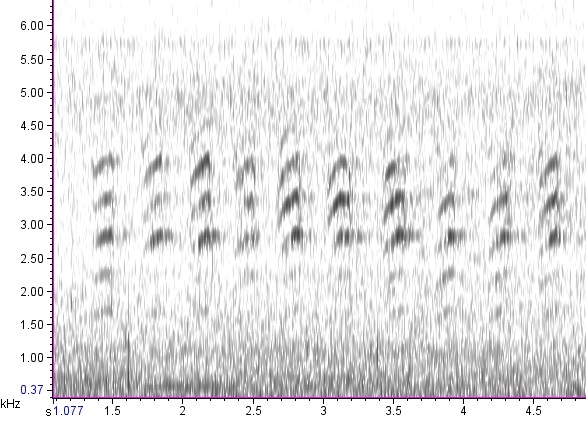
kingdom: Animalia
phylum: Chordata
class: Aves
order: Passeriformes
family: Sittidae
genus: Sitta
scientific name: Sitta canadensis
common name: Red-breasted nuthatch
